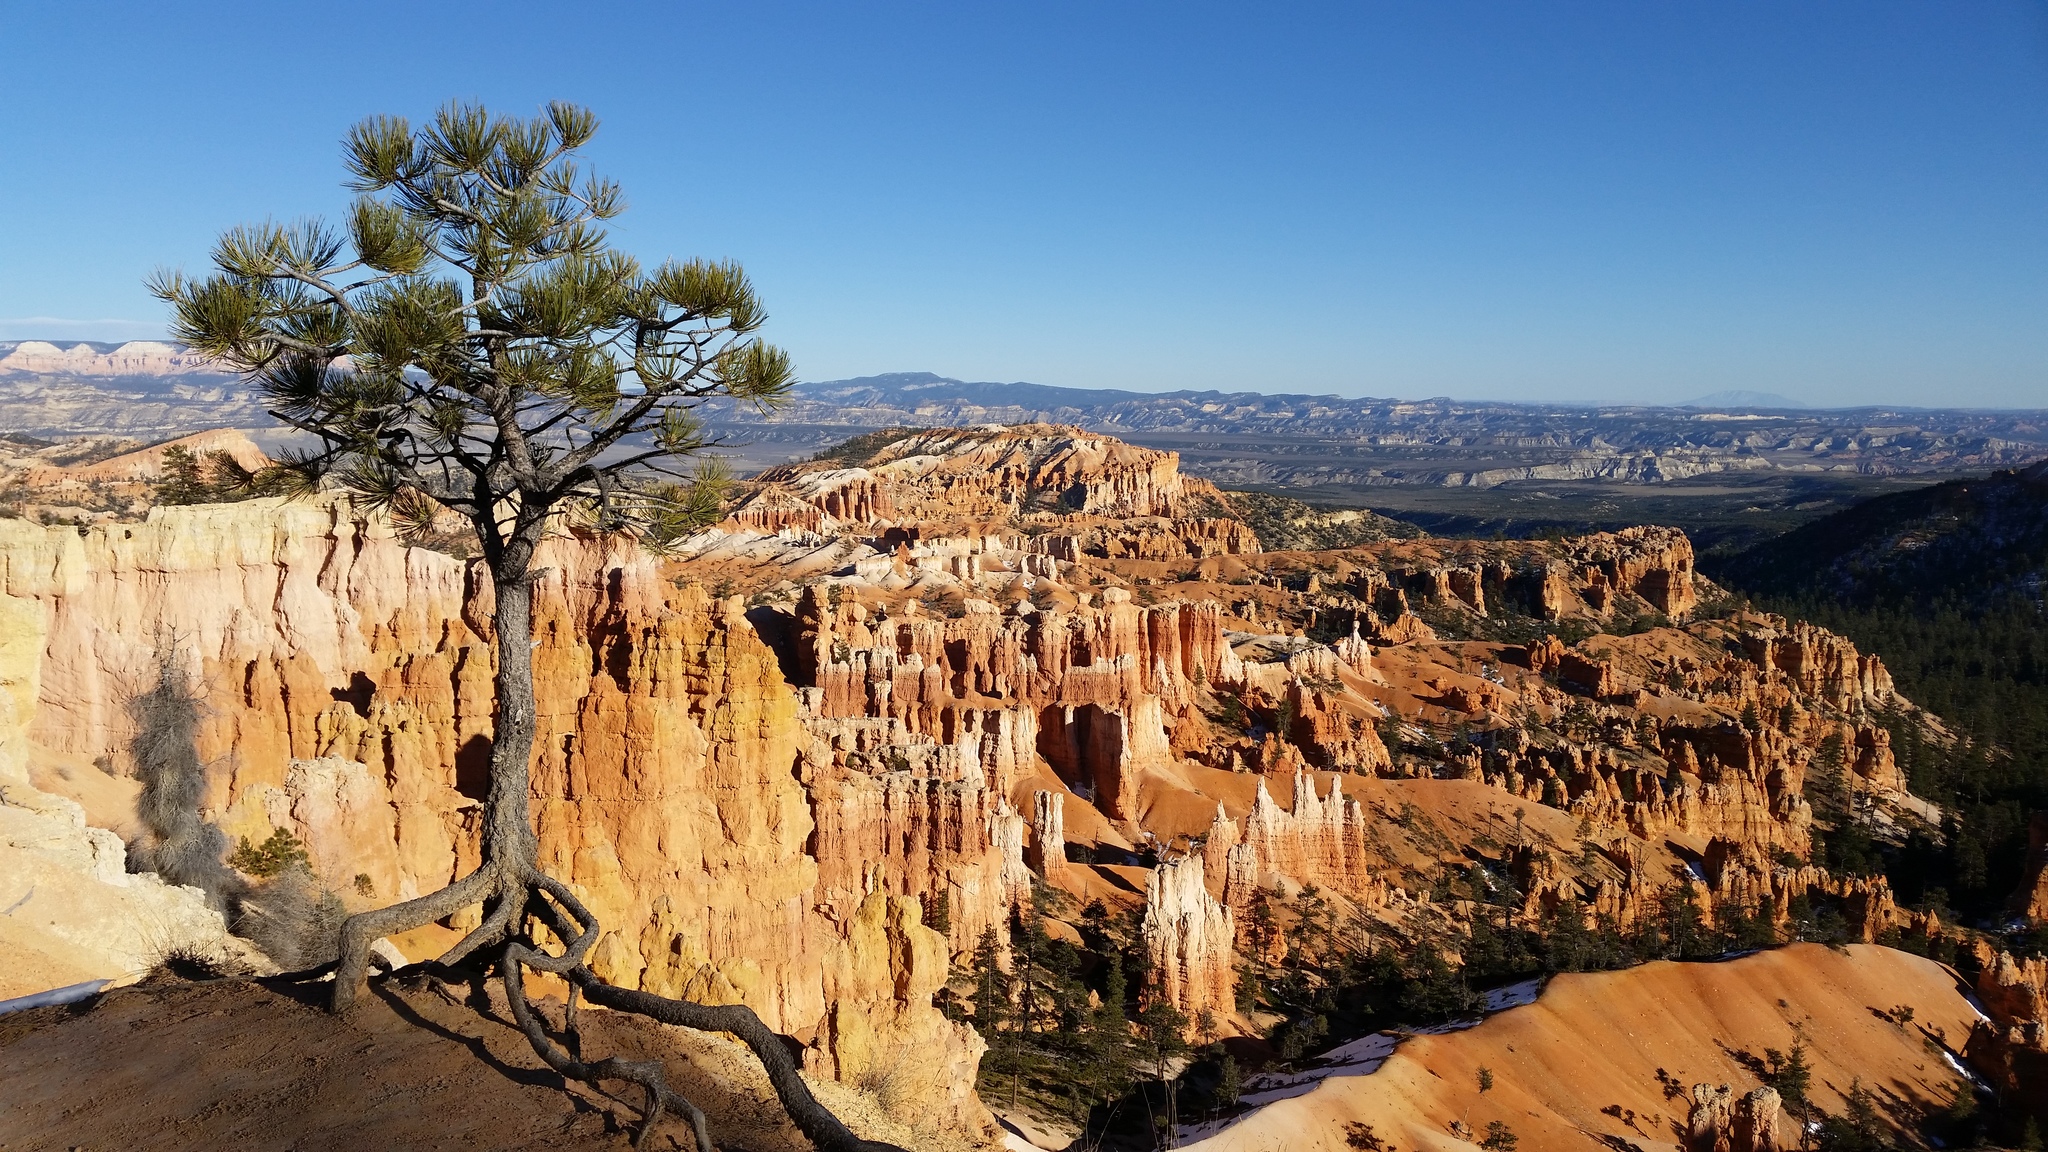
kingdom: Plantae
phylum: Tracheophyta
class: Pinopsida
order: Pinales
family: Pinaceae
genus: Pinus
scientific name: Pinus ponderosa
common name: Western yellow-pine
